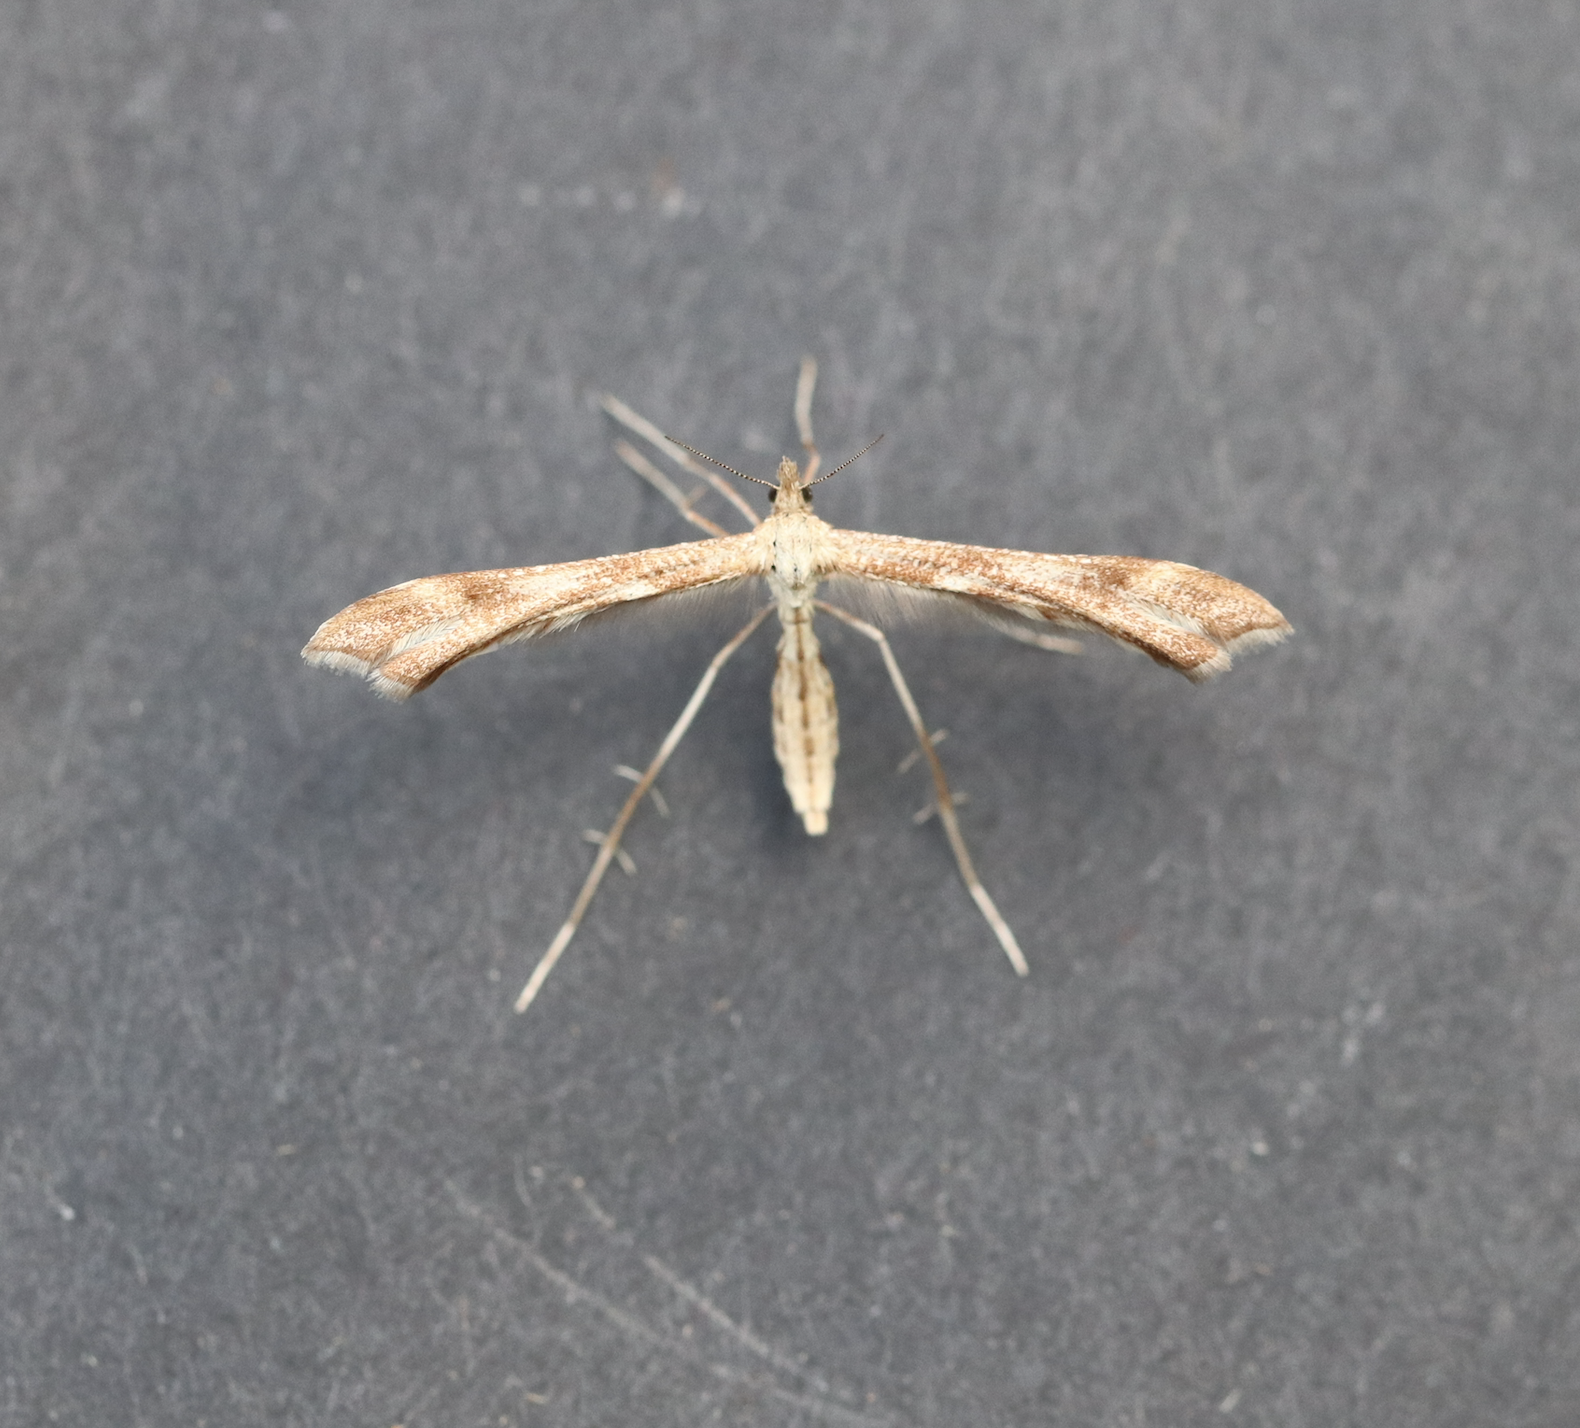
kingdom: Animalia
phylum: Arthropoda
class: Insecta
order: Lepidoptera
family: Pterophoridae
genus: Gillmeria
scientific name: Gillmeria pallidactyla
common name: Yarrow plume
